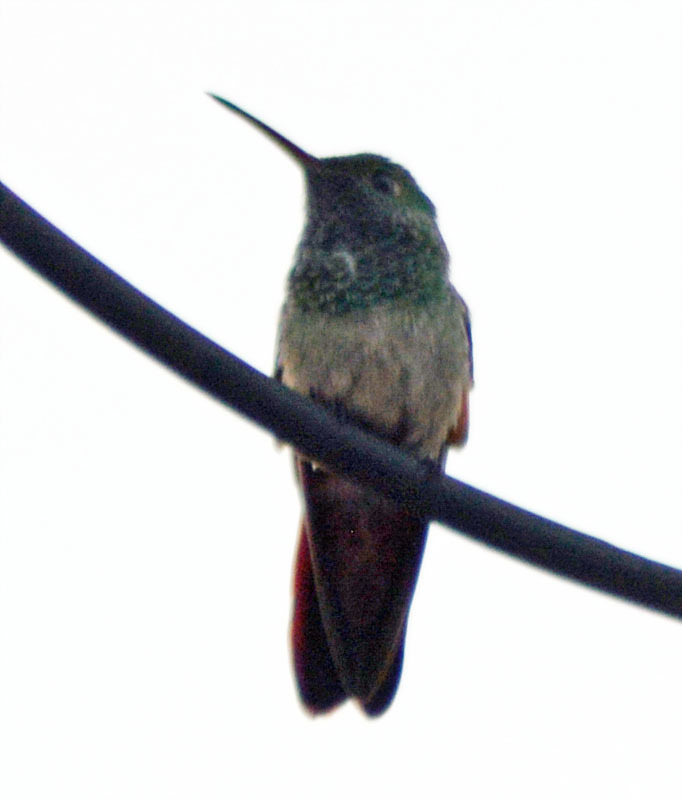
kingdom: Animalia
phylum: Chordata
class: Aves
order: Apodiformes
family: Trochilidae
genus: Saucerottia
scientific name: Saucerottia beryllina
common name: Berylline hummingbird
